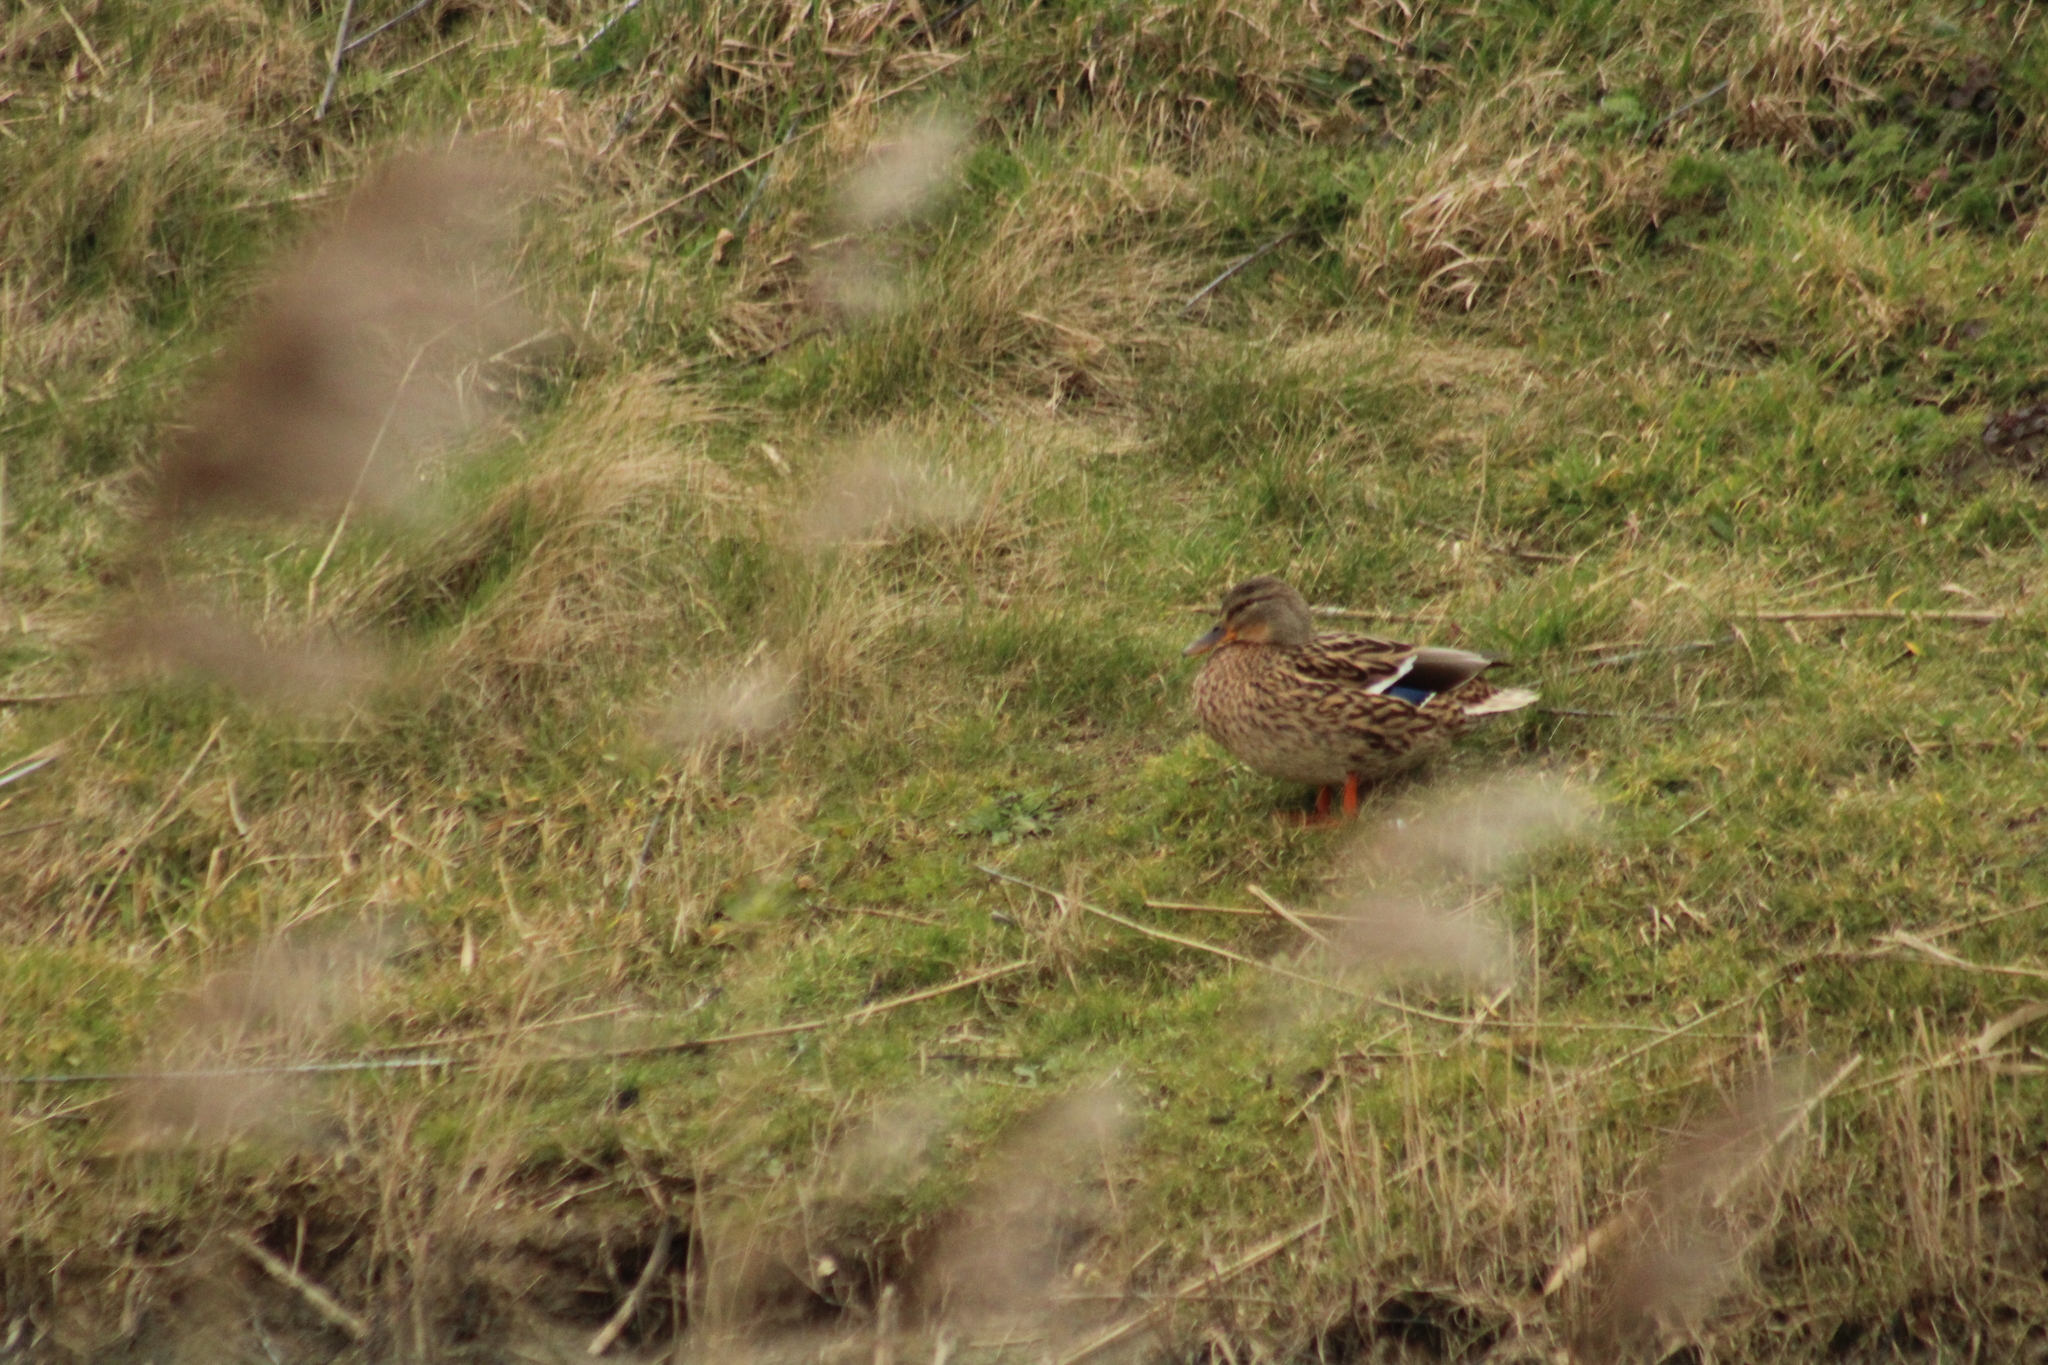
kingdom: Animalia
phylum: Chordata
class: Aves
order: Anseriformes
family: Anatidae
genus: Anas
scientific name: Anas platyrhynchos
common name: Mallard
